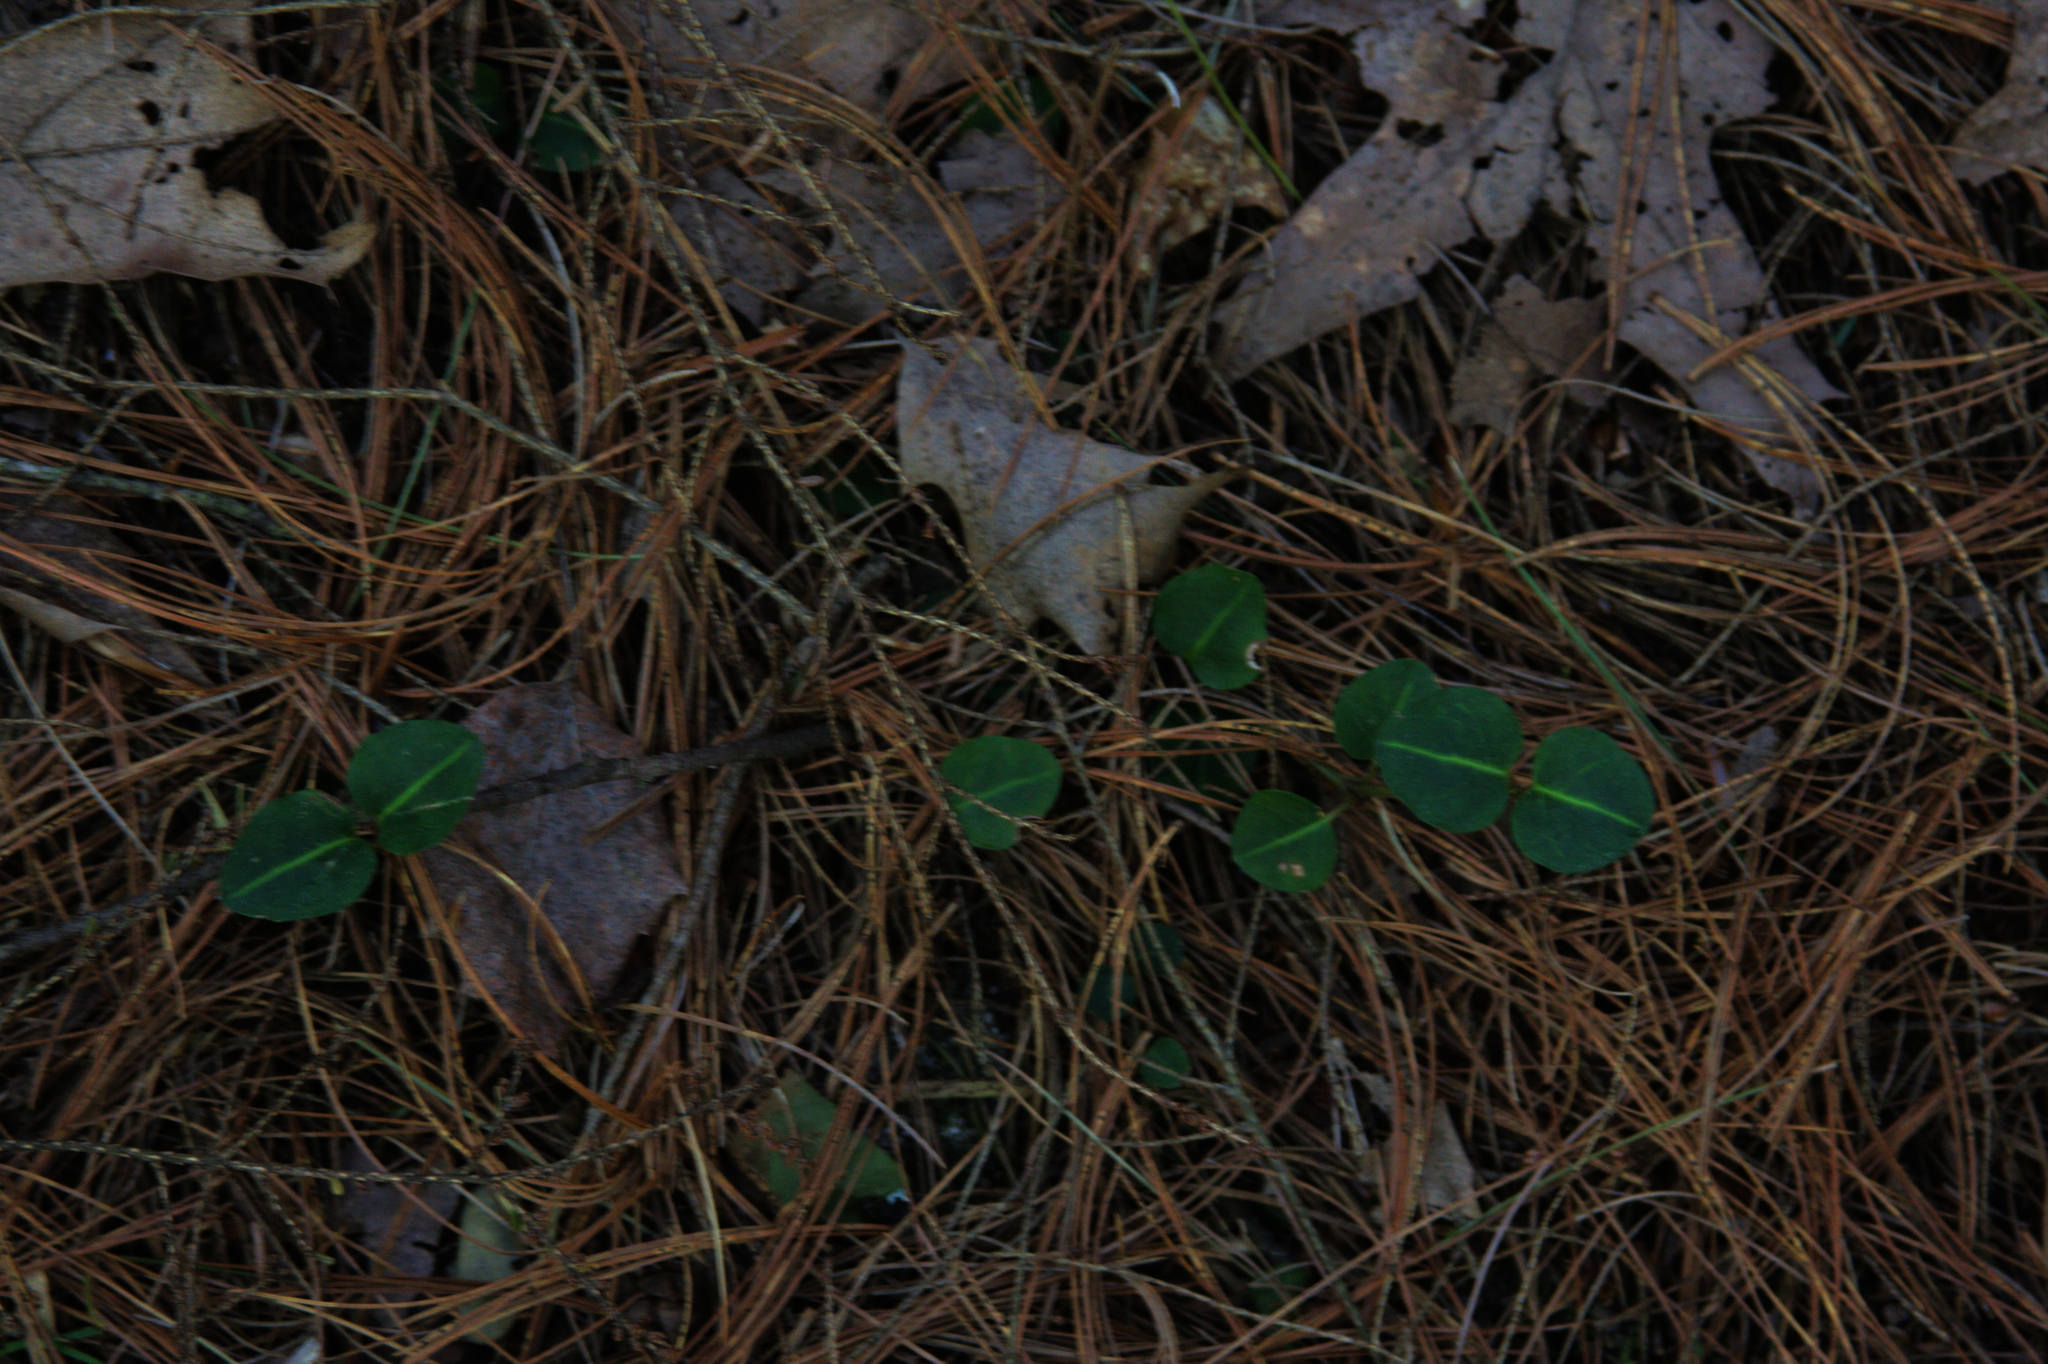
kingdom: Plantae
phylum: Tracheophyta
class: Magnoliopsida
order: Gentianales
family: Rubiaceae
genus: Mitchella
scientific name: Mitchella repens
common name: Partridge-berry
